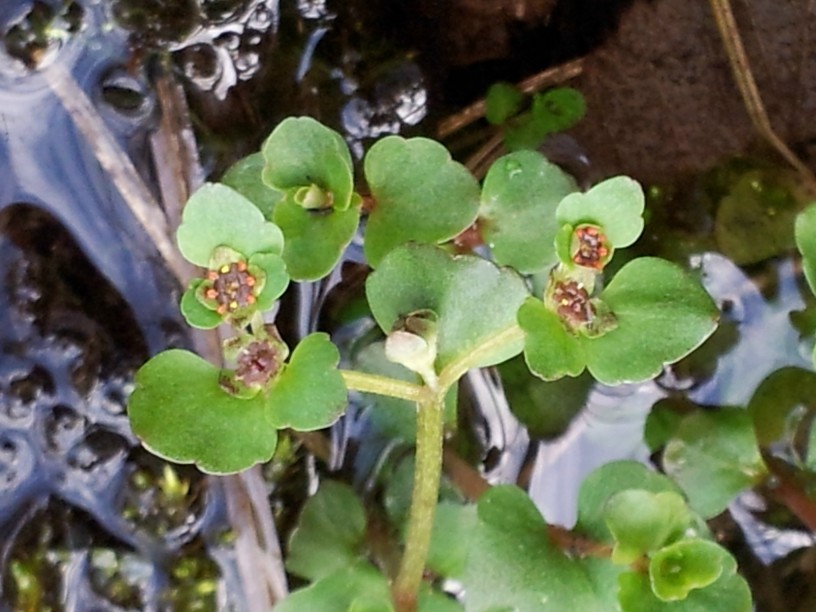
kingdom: Plantae
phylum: Tracheophyta
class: Magnoliopsida
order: Saxifragales
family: Saxifragaceae
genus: Chrysosplenium
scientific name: Chrysosplenium americanum
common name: American golden-saxifrage
